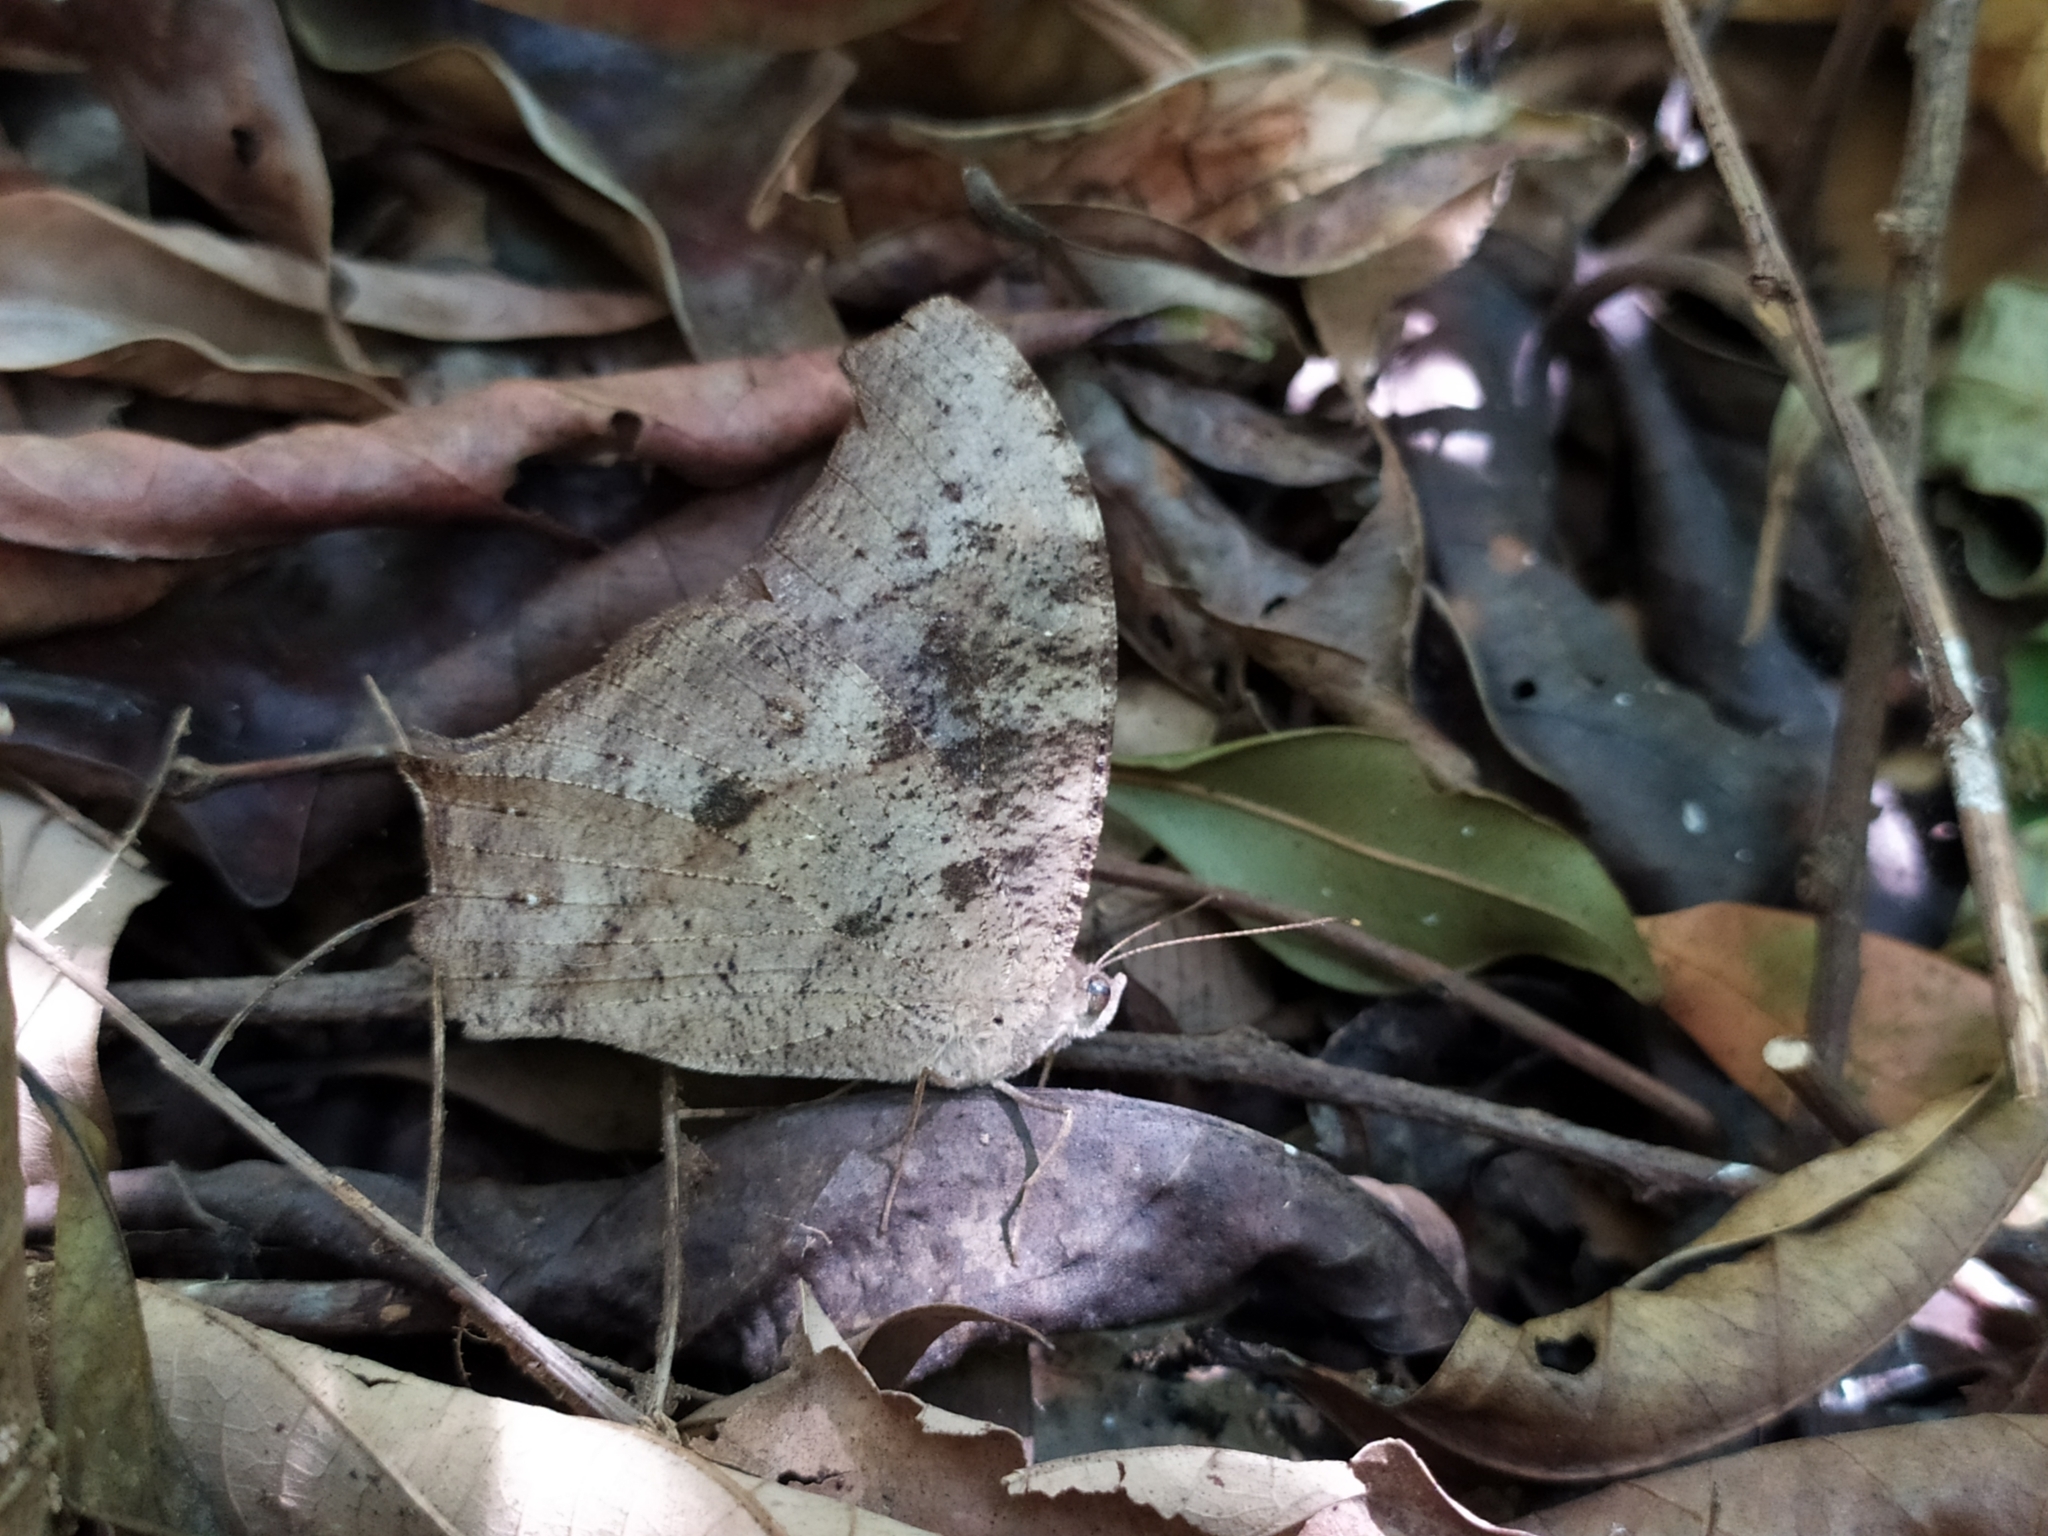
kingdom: Animalia
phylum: Arthropoda
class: Insecta
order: Lepidoptera
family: Nymphalidae
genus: Melanitis
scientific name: Melanitis leda
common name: Twilight brown
